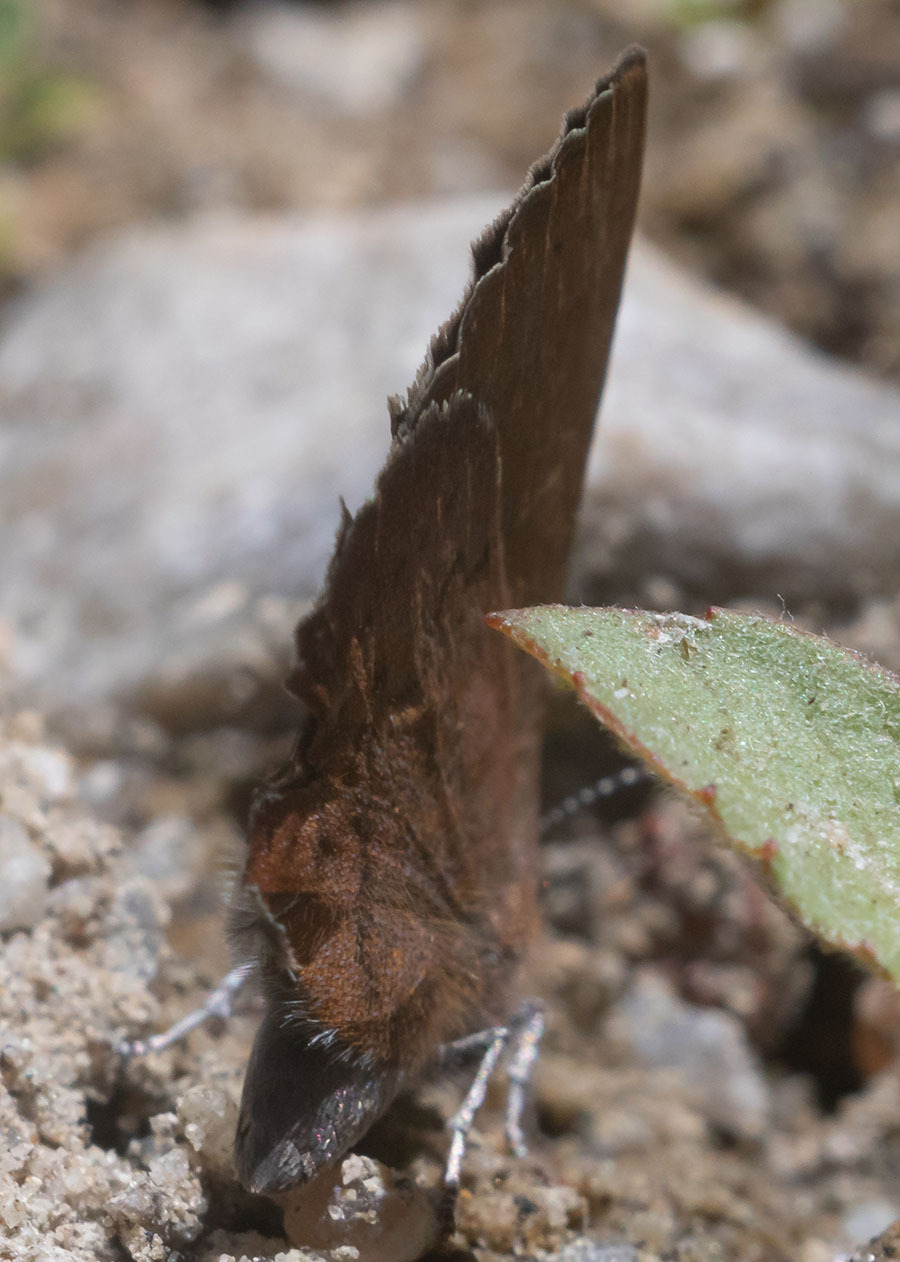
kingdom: Animalia
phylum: Arthropoda
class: Insecta
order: Lepidoptera
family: Lycaenidae
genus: Incisalia
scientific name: Incisalia irioides
